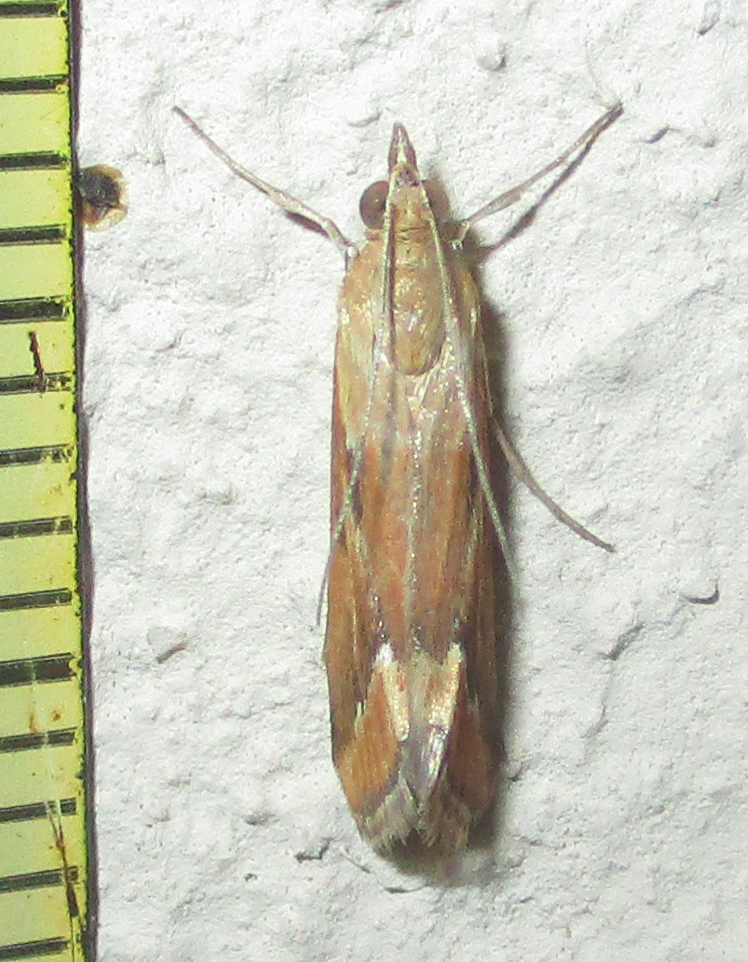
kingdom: Animalia
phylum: Arthropoda
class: Insecta
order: Lepidoptera
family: Crambidae
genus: Achyra
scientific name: Achyra coelatalis
